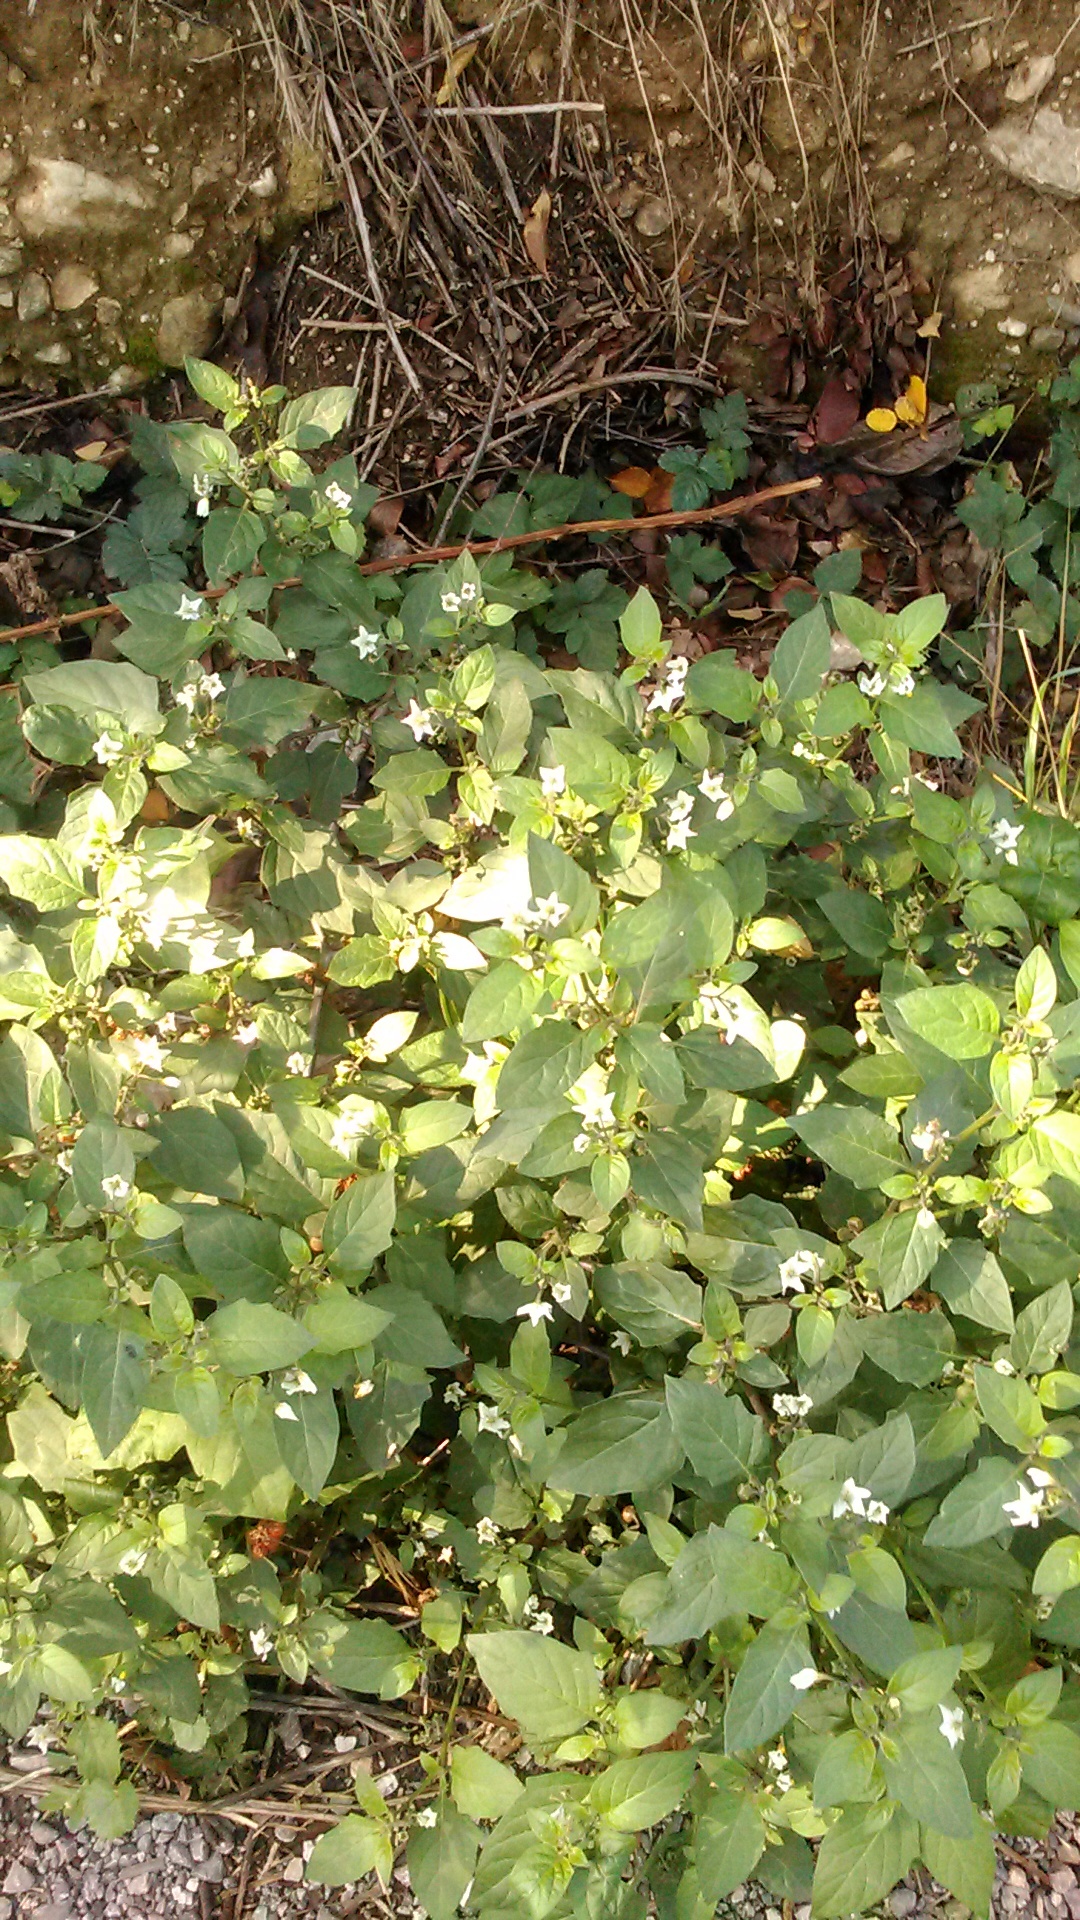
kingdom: Plantae
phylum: Tracheophyta
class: Magnoliopsida
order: Solanales
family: Solanaceae
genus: Solanum
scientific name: Solanum nigrum
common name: Black nightshade
